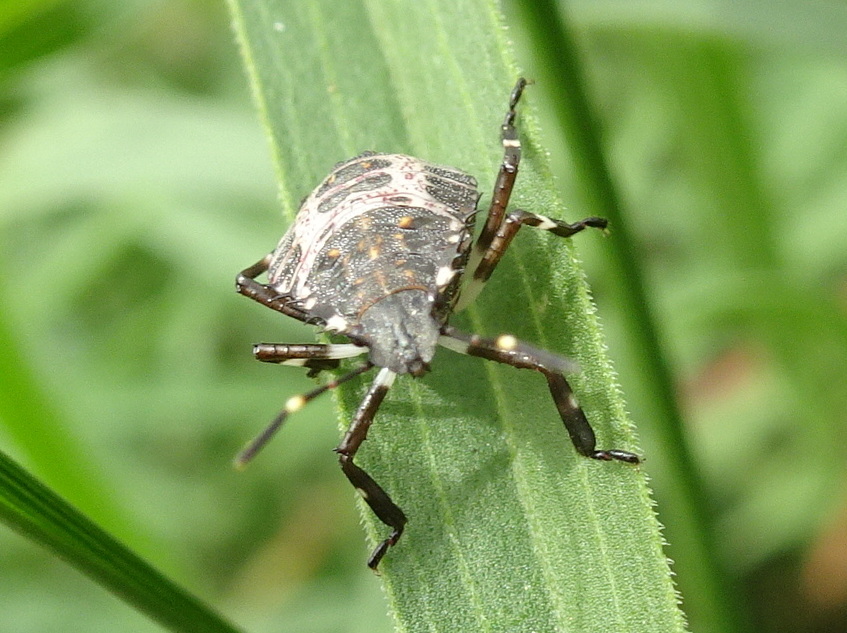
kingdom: Animalia
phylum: Arthropoda
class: Insecta
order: Hemiptera
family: Pentatomidae
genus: Halyomorpha
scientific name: Halyomorpha halys
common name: Brown marmorated stink bug
